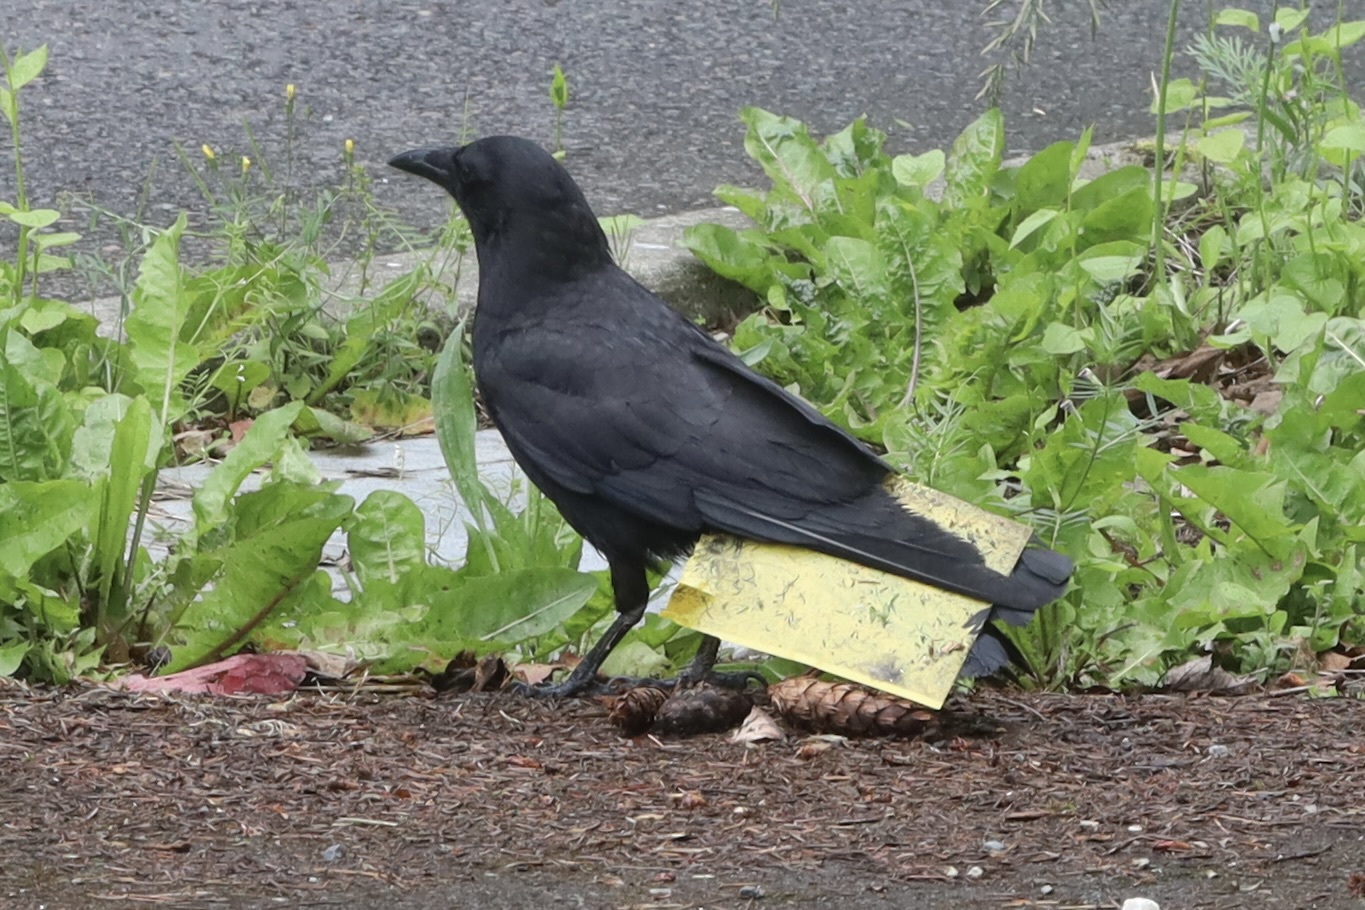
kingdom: Animalia
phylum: Chordata
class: Aves
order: Passeriformes
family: Corvidae
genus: Corvus
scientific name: Corvus brachyrhynchos
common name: American crow
